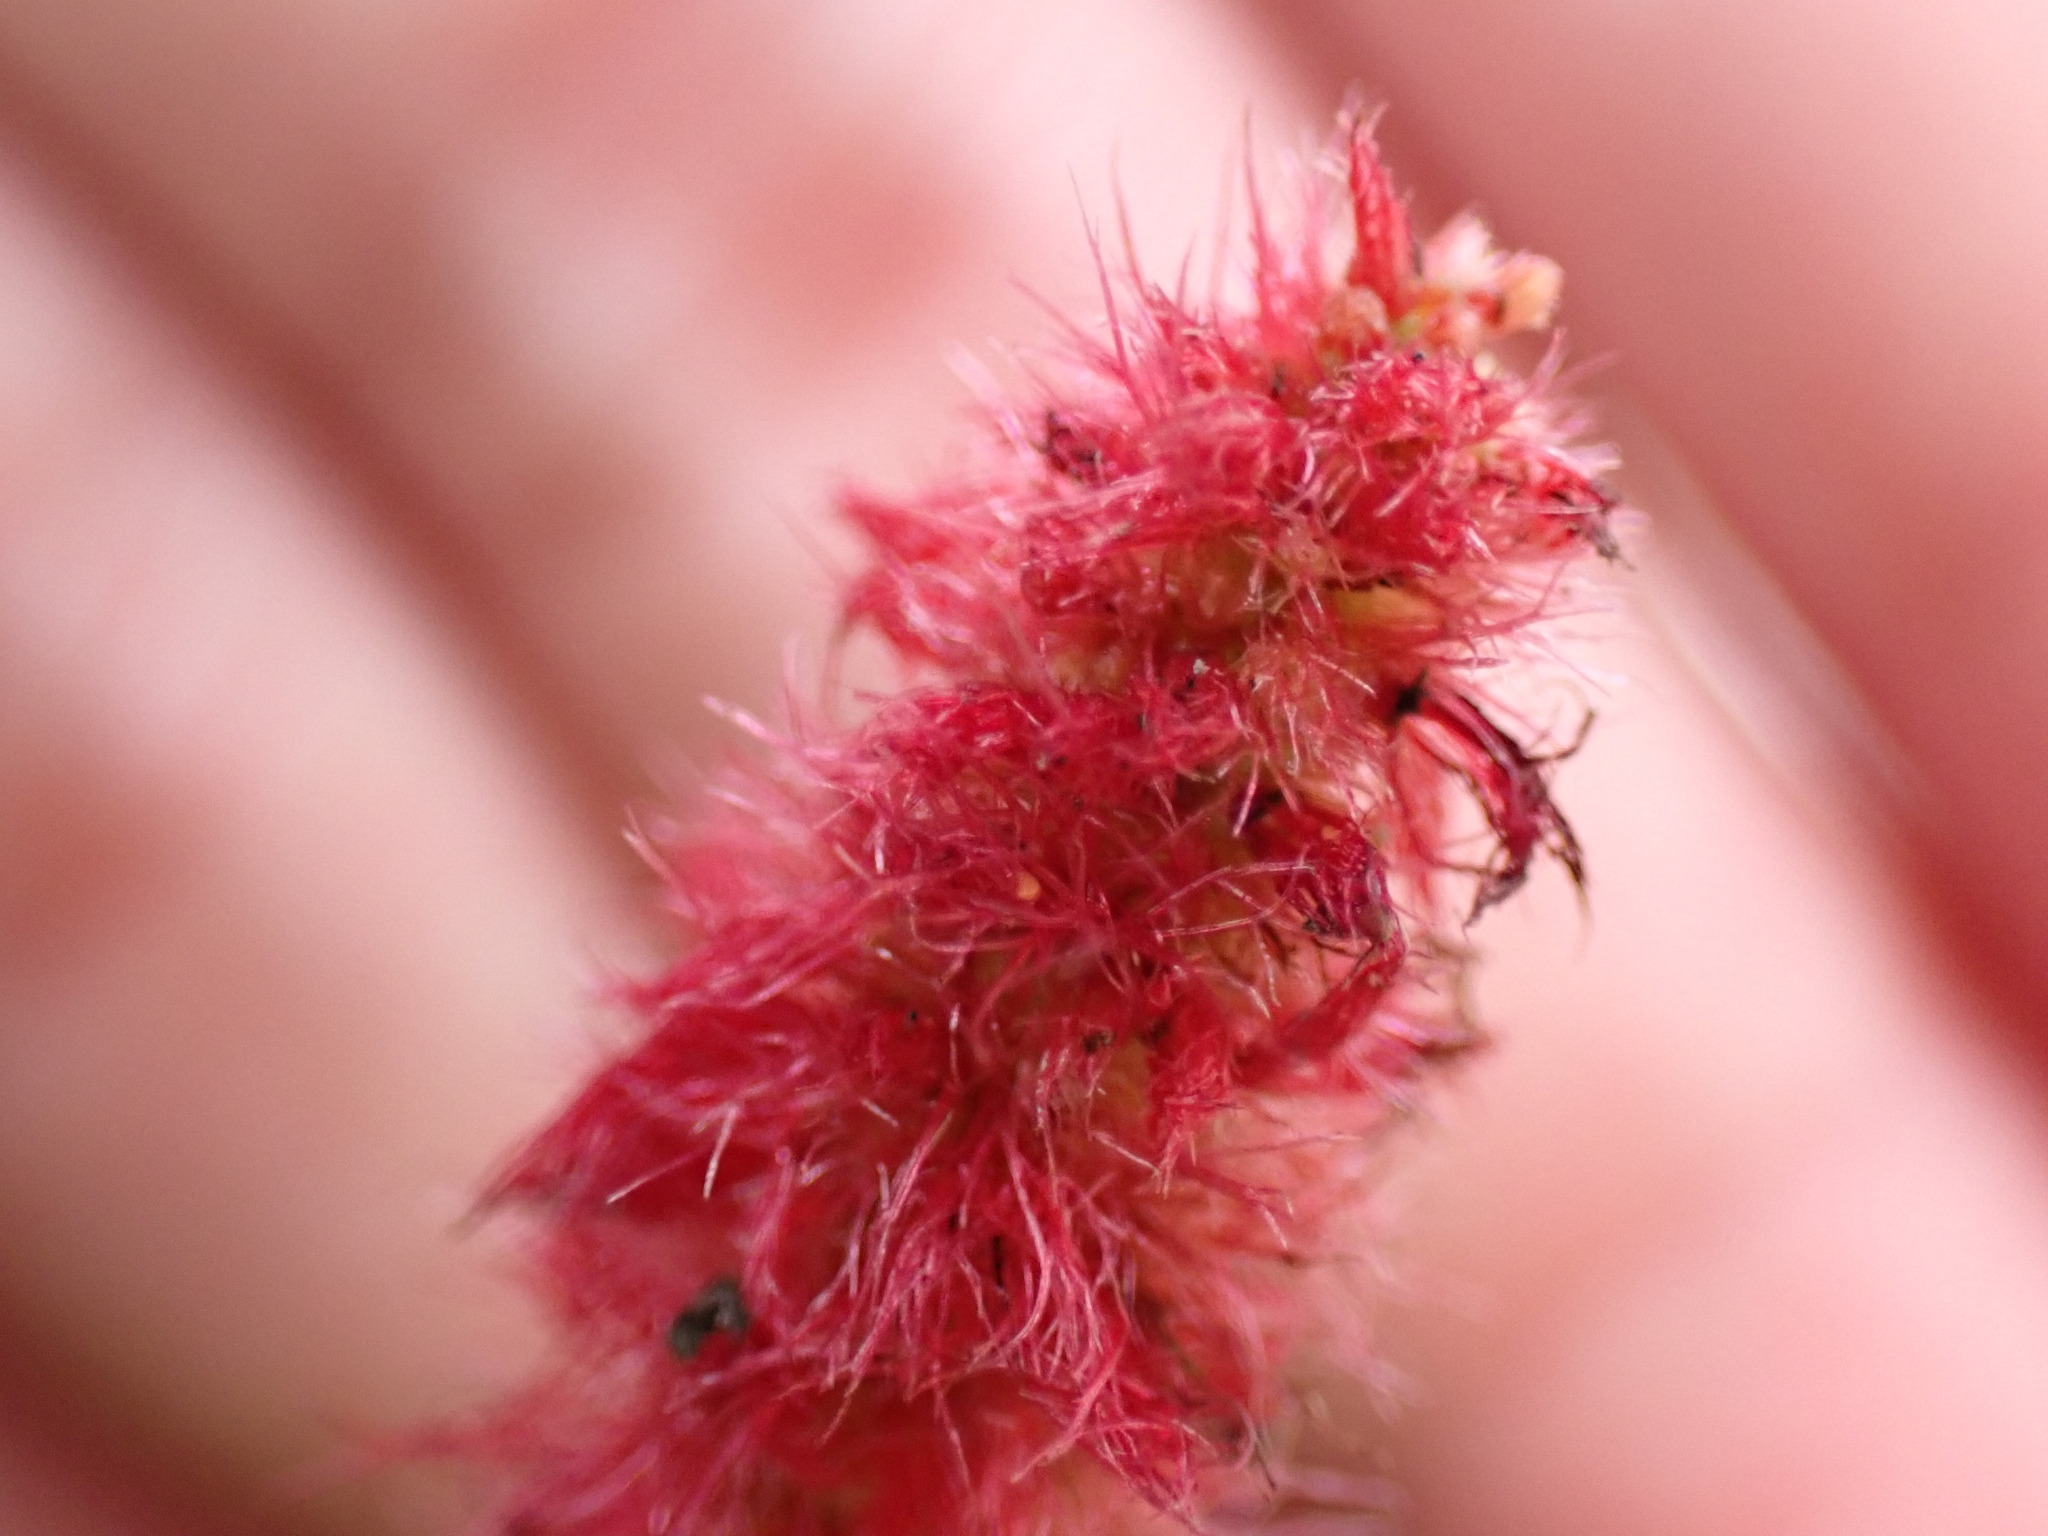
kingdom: Plantae
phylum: Tracheophyta
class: Magnoliopsida
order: Malpighiales
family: Euphorbiaceae
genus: Acalypha
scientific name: Acalypha pendula
